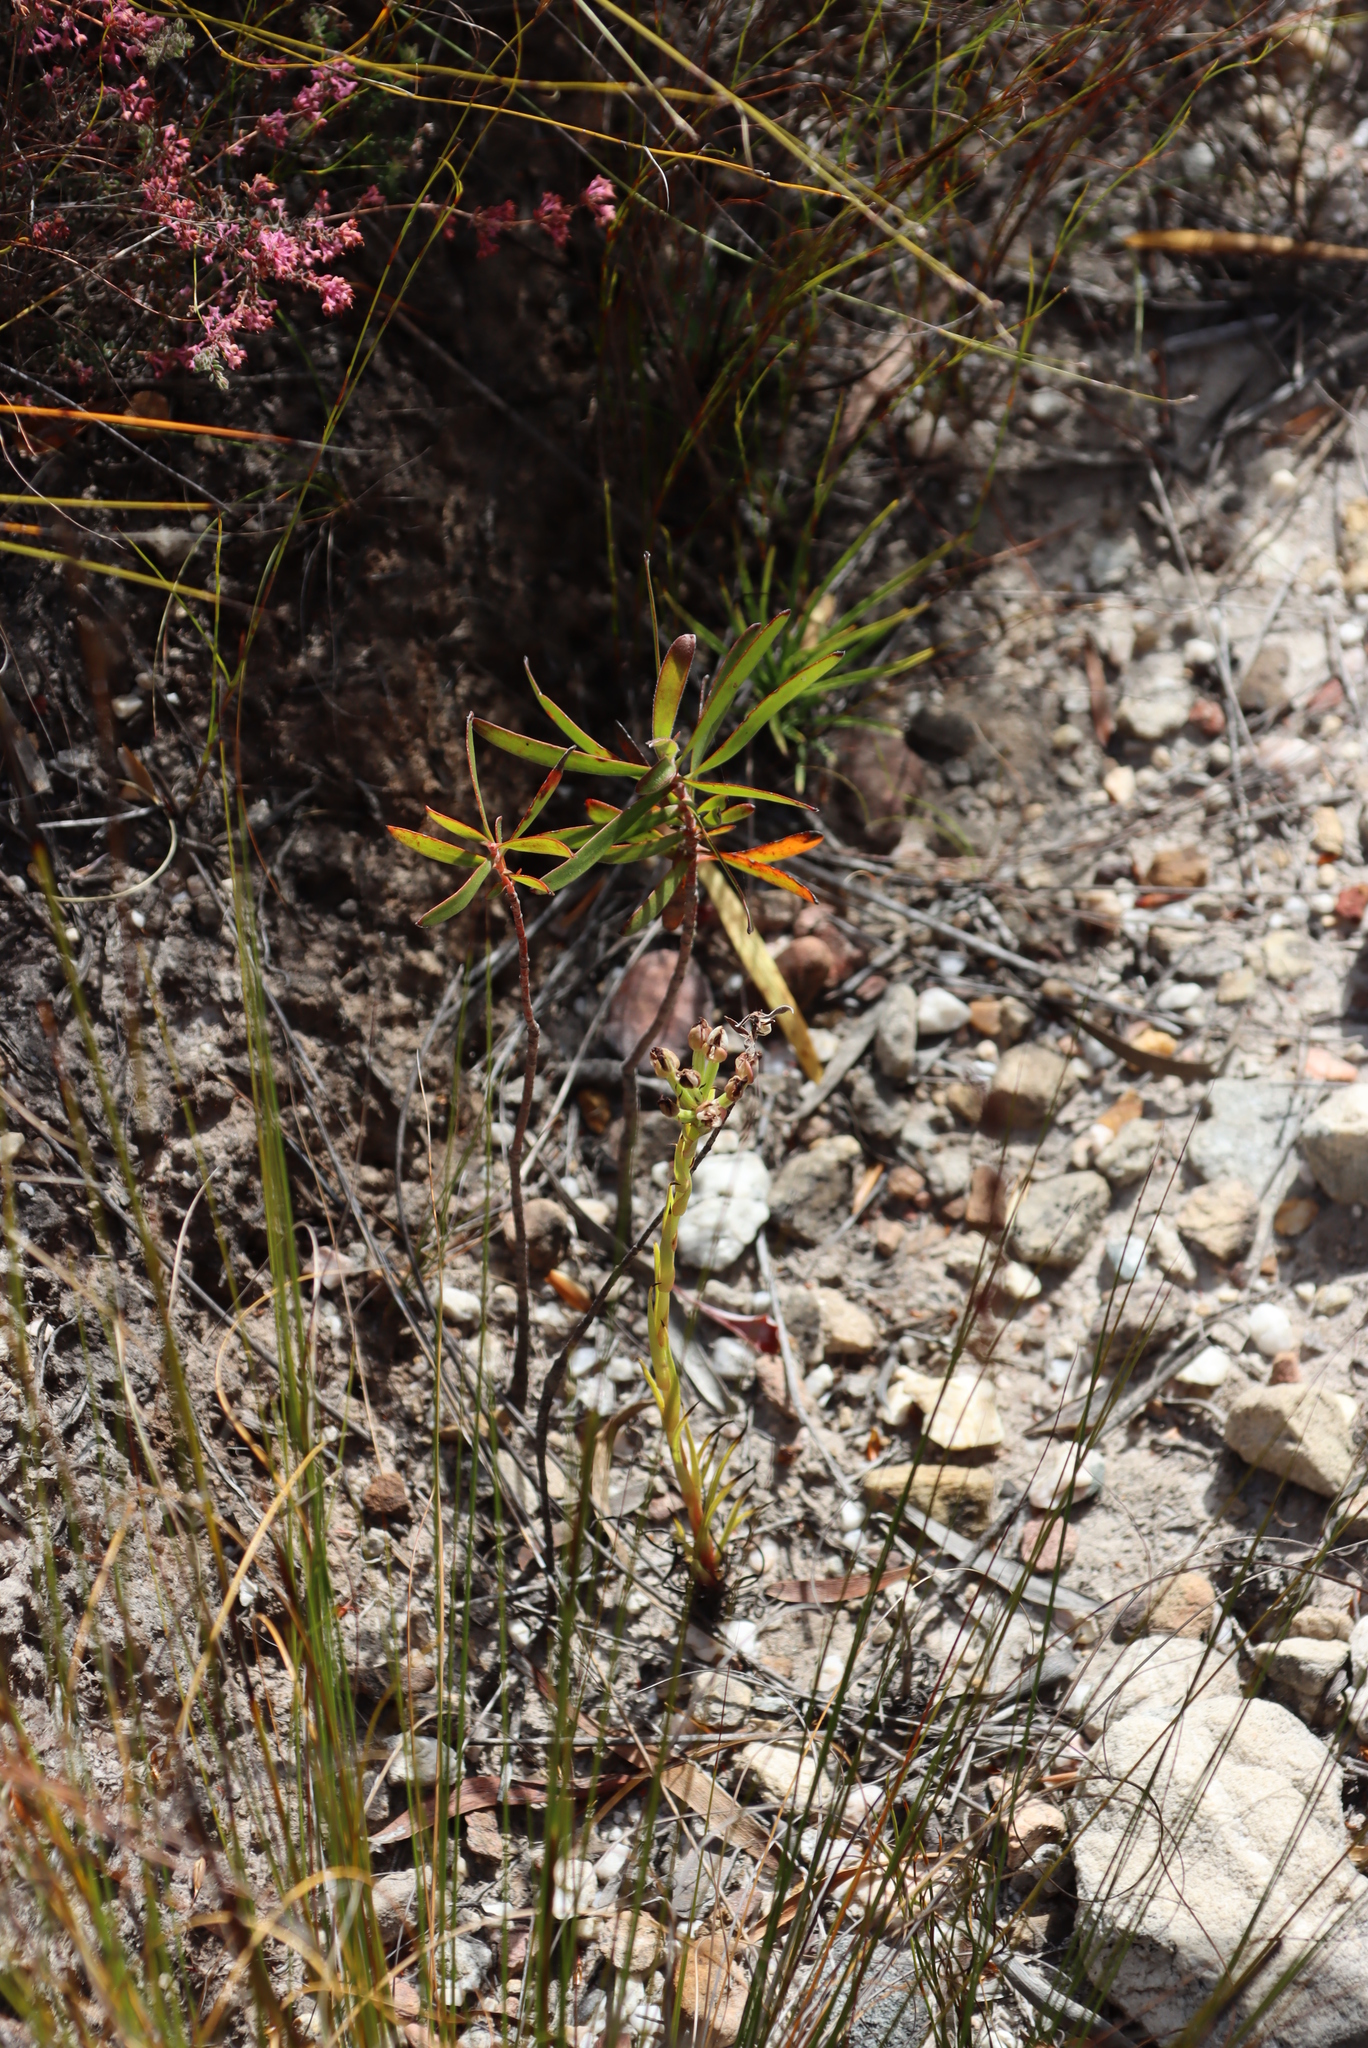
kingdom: Plantae
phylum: Tracheophyta
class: Liliopsida
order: Asparagales
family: Orchidaceae
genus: Ceratandra
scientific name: Ceratandra globosa
